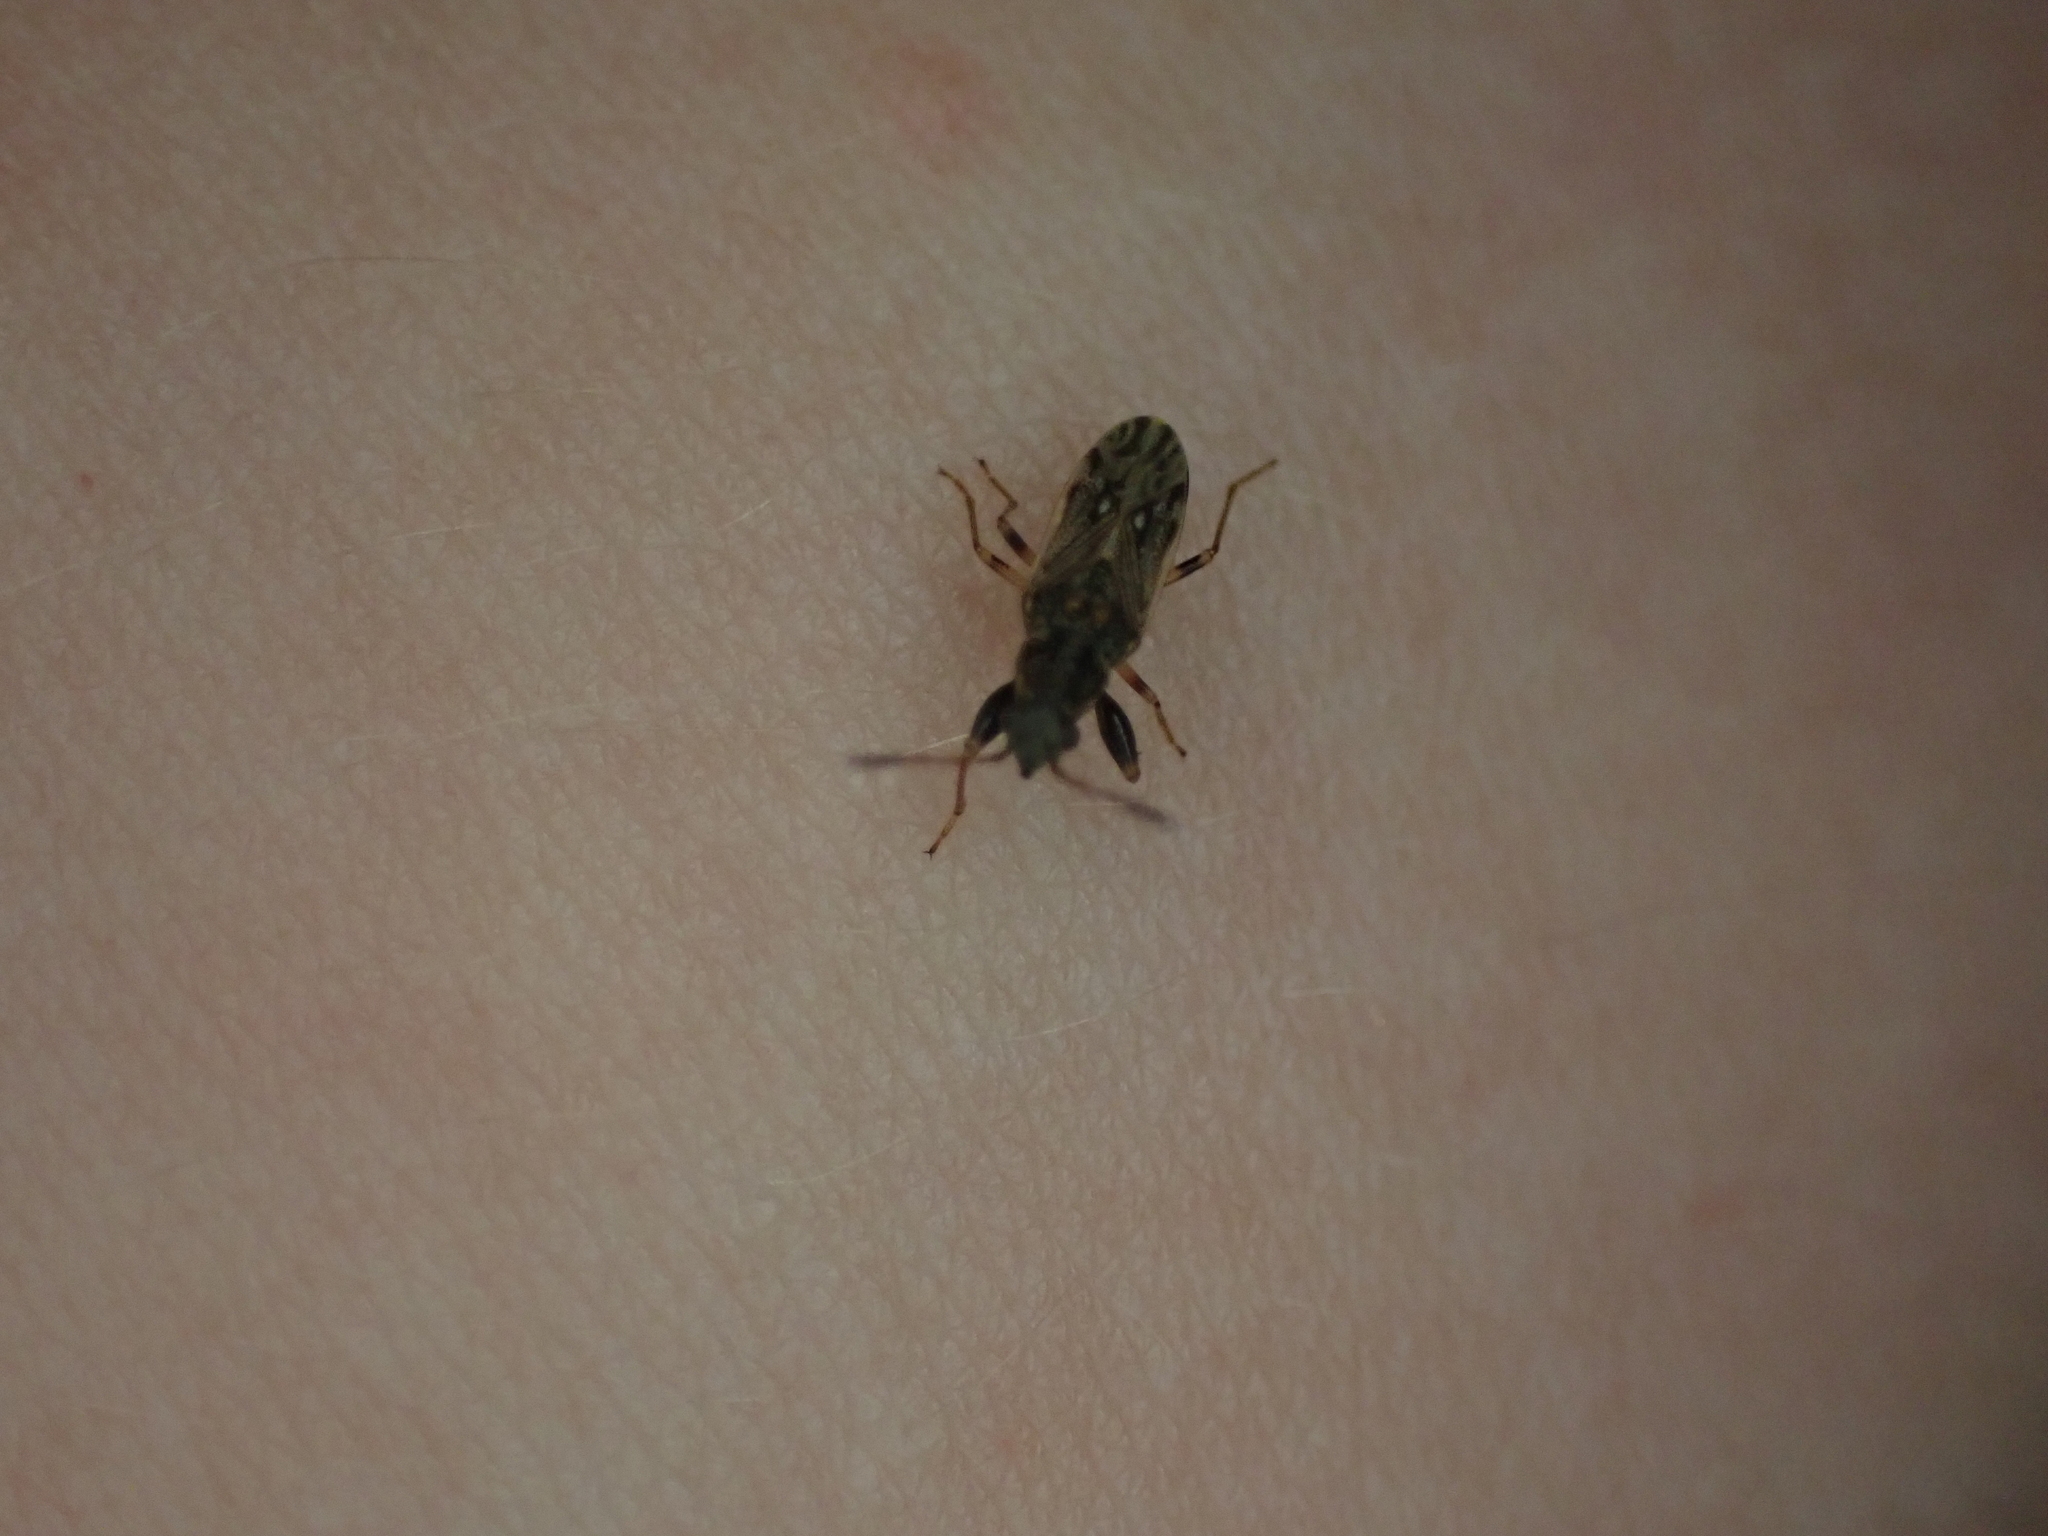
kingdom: Animalia
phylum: Arthropoda
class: Insecta
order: Hemiptera
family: Rhyparochromidae
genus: Pseudopachybrachius
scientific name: Pseudopachybrachius basalis
